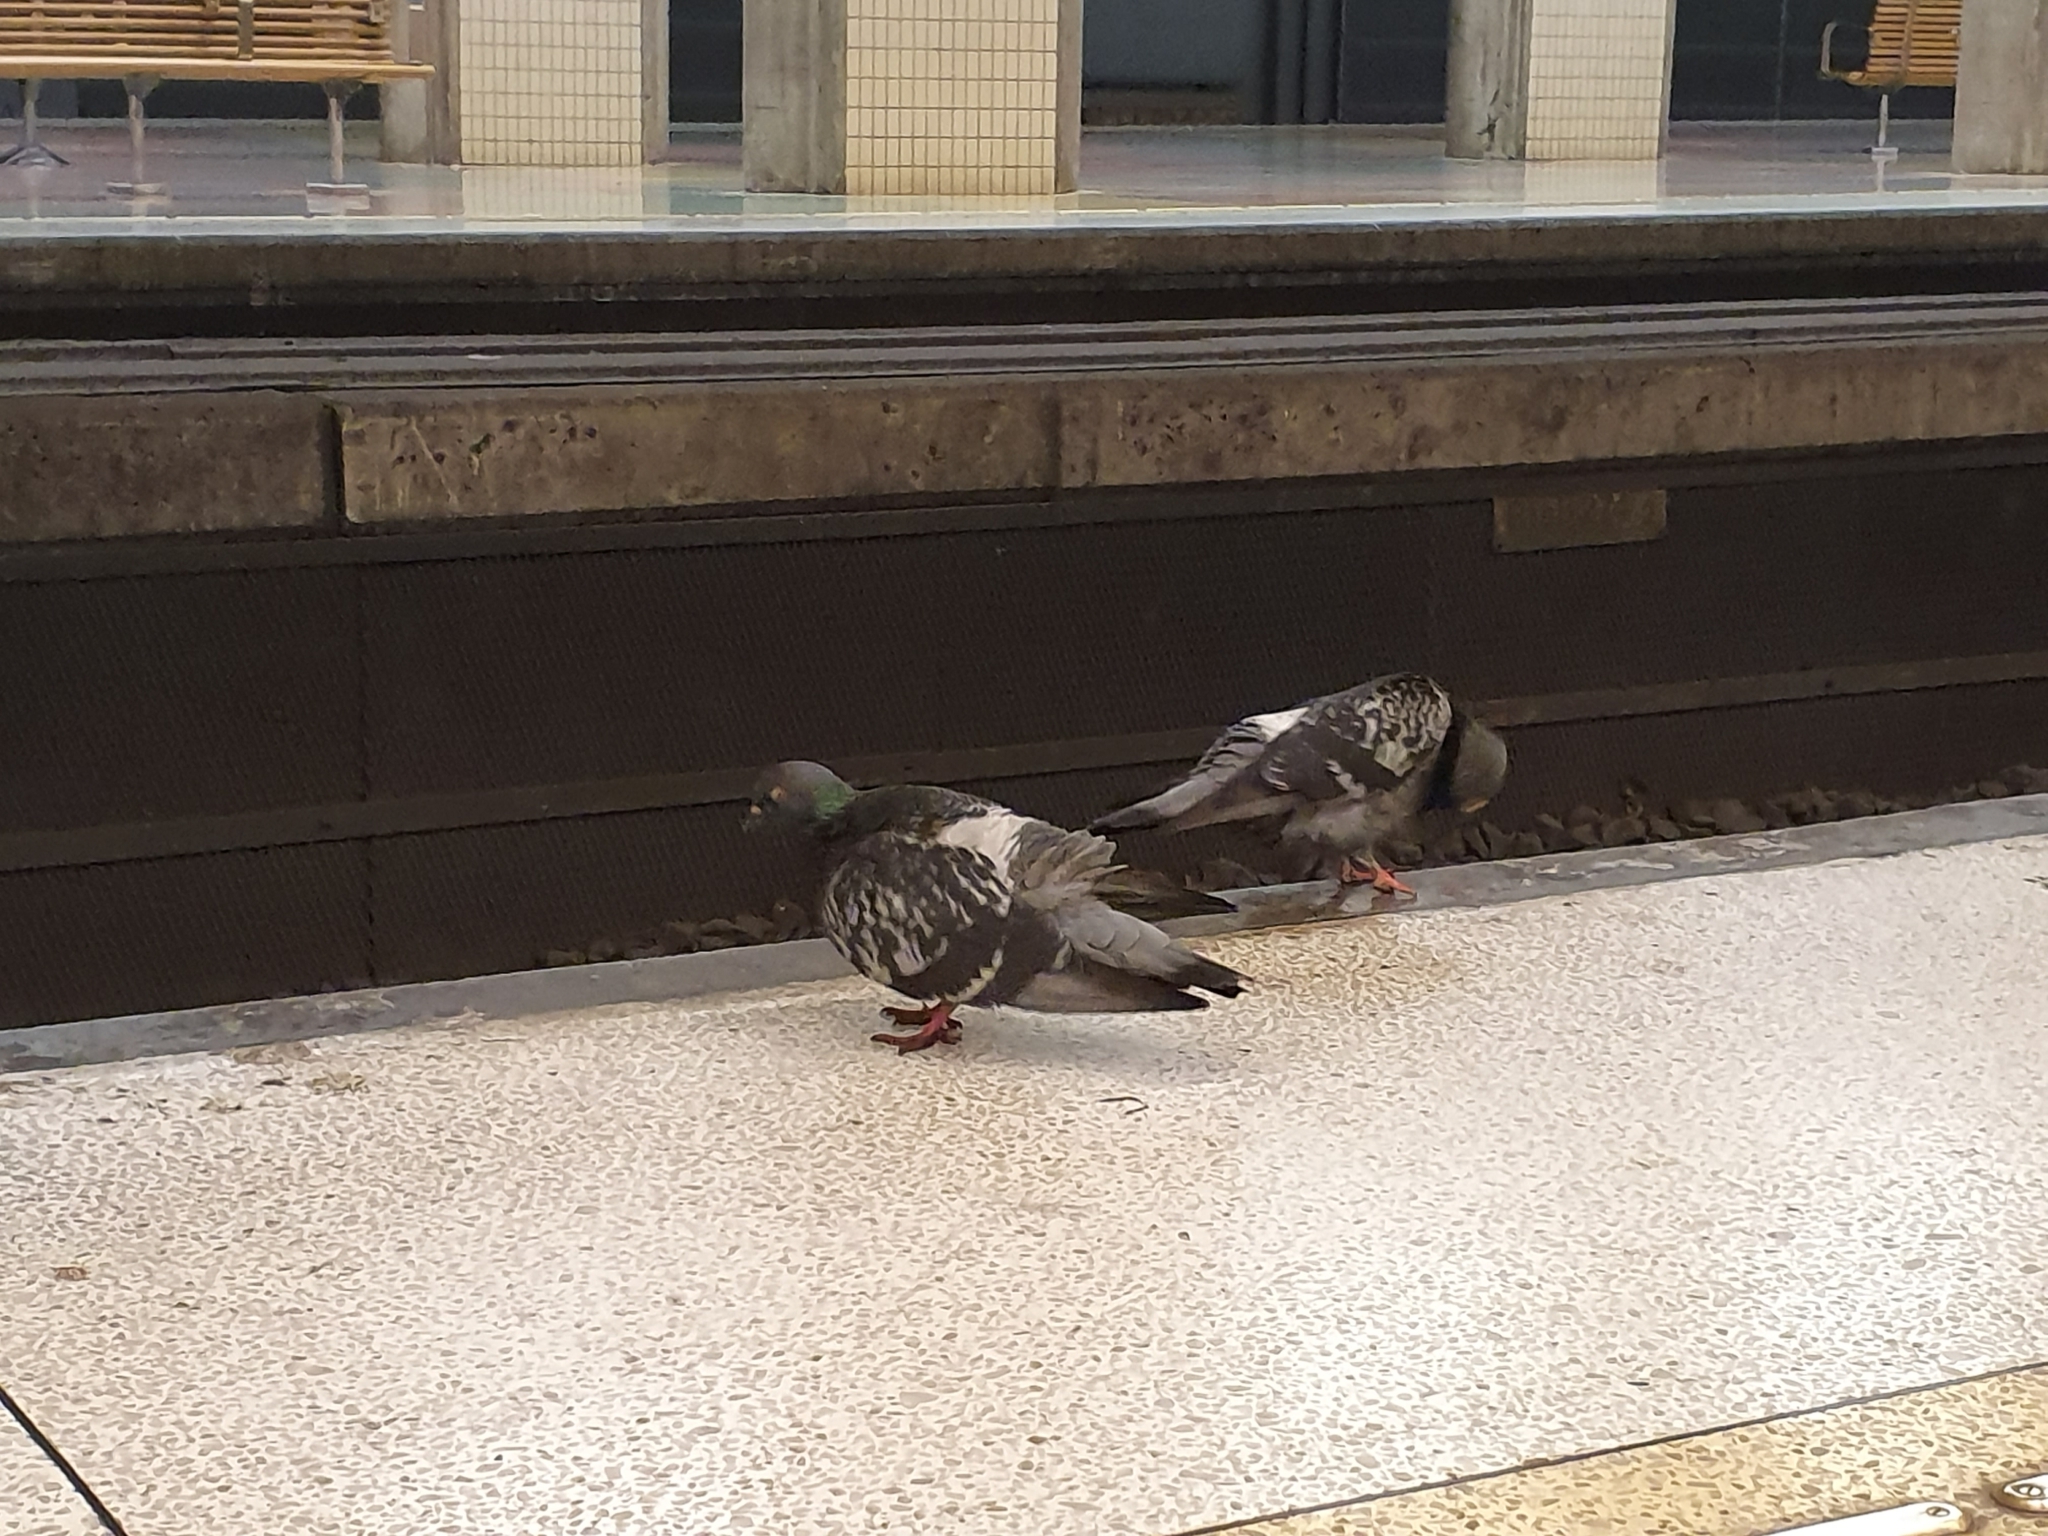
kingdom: Animalia
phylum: Chordata
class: Aves
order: Columbiformes
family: Columbidae
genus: Columba
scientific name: Columba livia
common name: Rock pigeon
